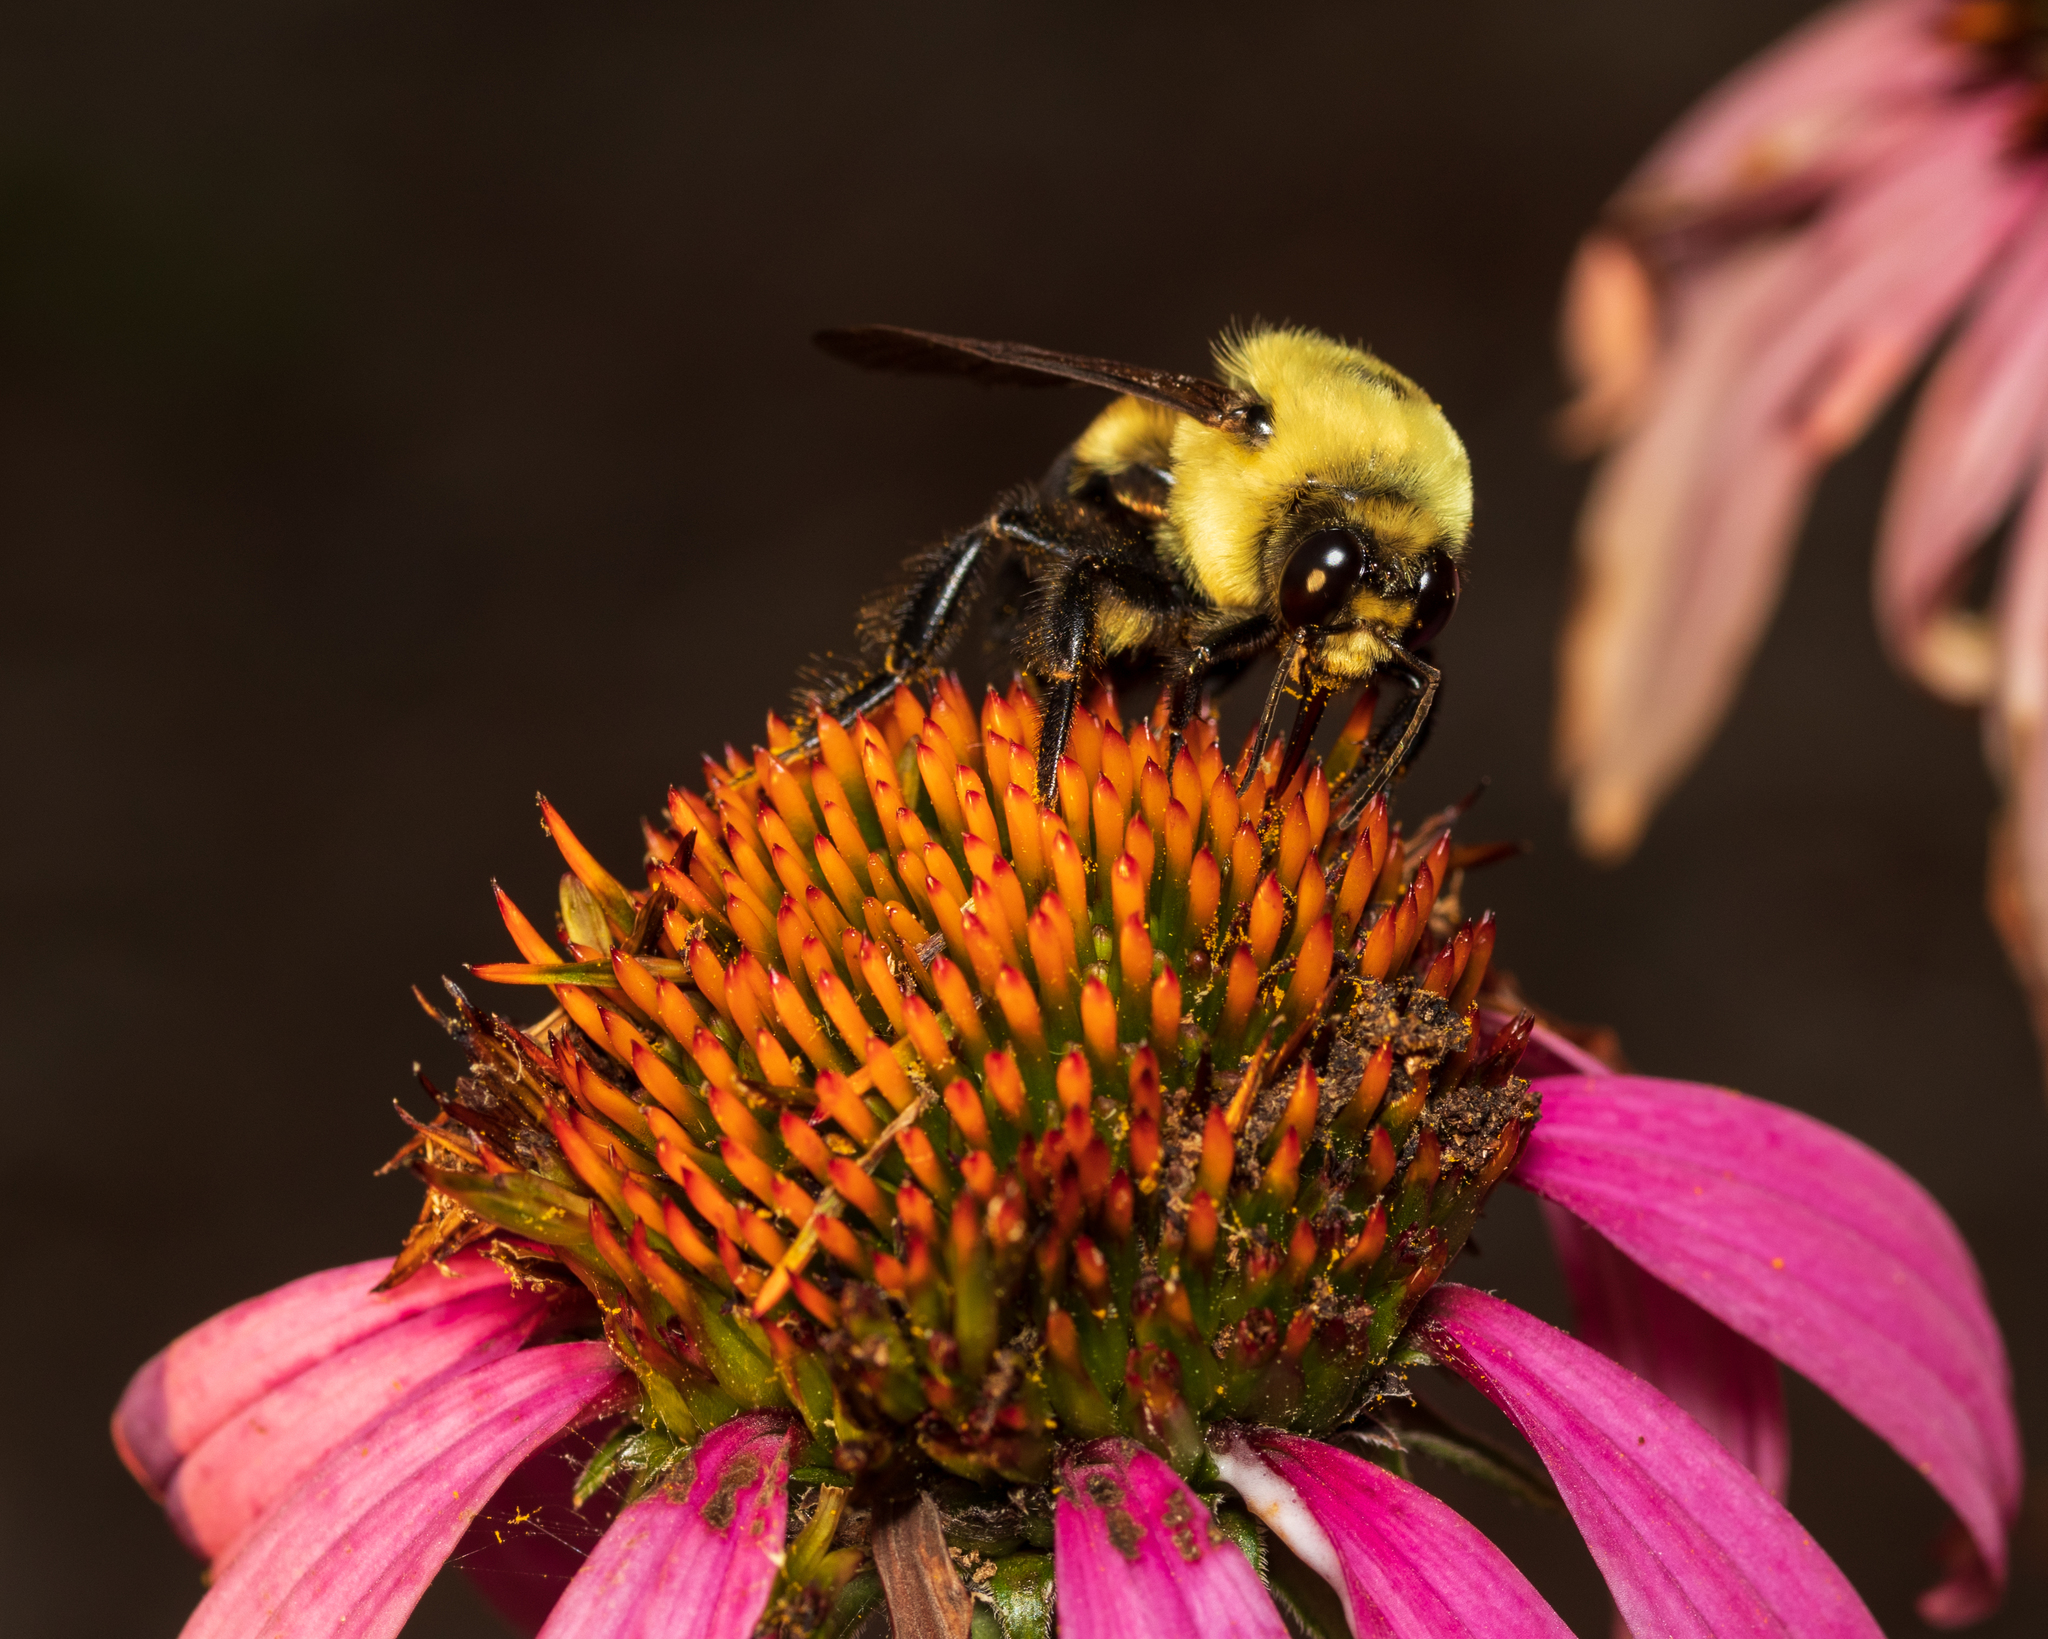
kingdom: Animalia
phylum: Arthropoda
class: Insecta
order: Hymenoptera
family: Apidae
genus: Bombus
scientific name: Bombus griseocollis
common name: Brown-belted bumble bee
